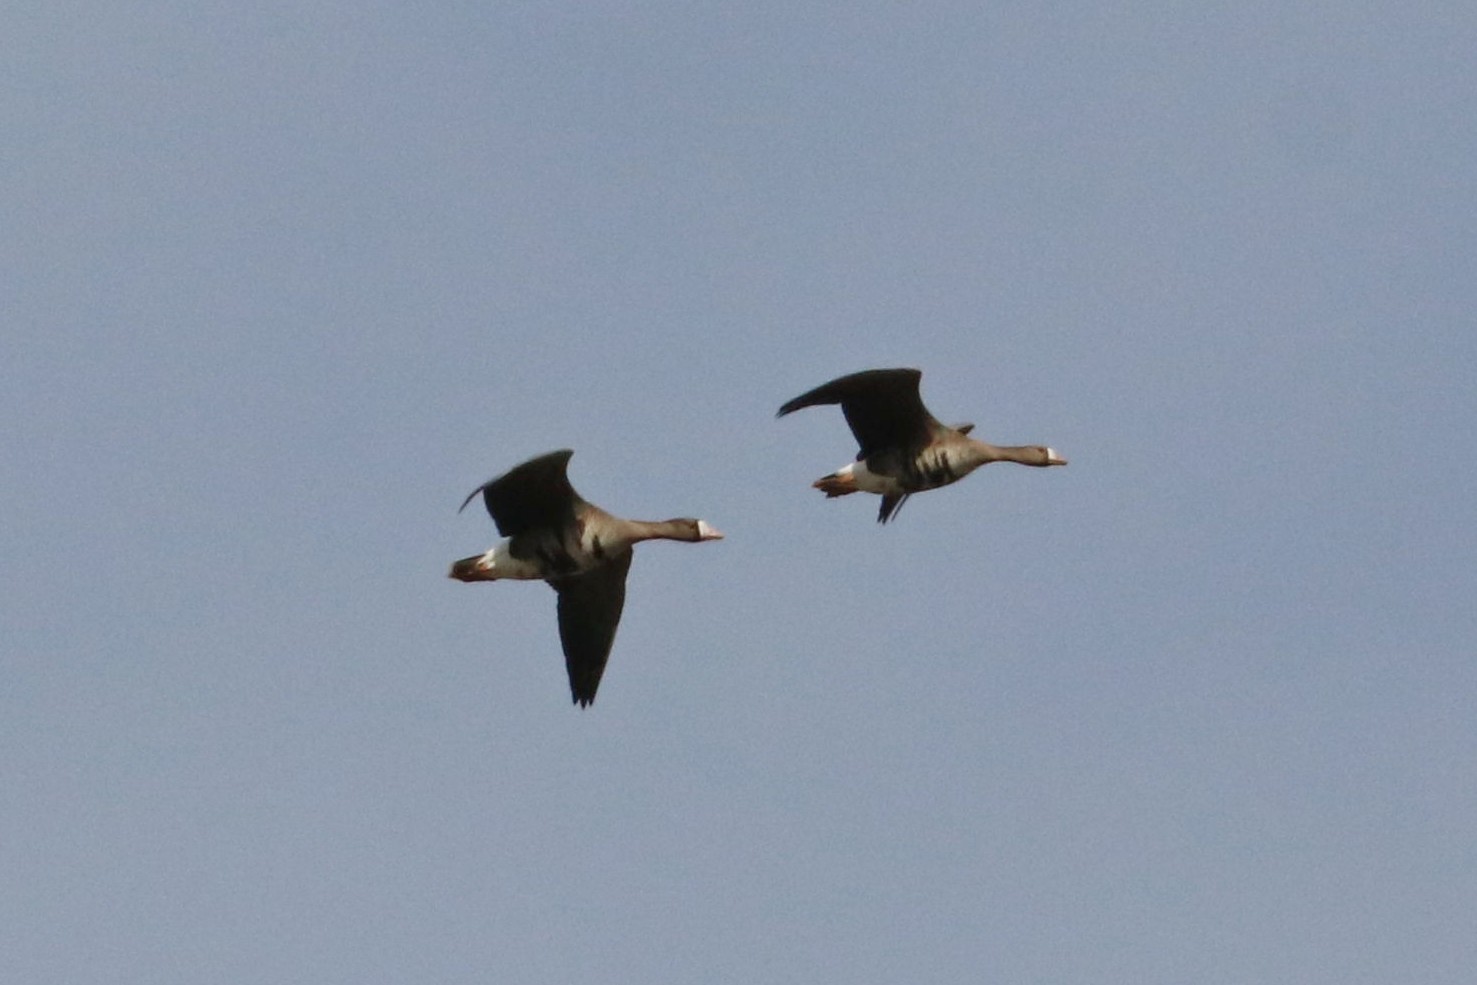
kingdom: Animalia
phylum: Chordata
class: Aves
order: Anseriformes
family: Anatidae
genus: Anser
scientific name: Anser albifrons
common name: Greater white-fronted goose
